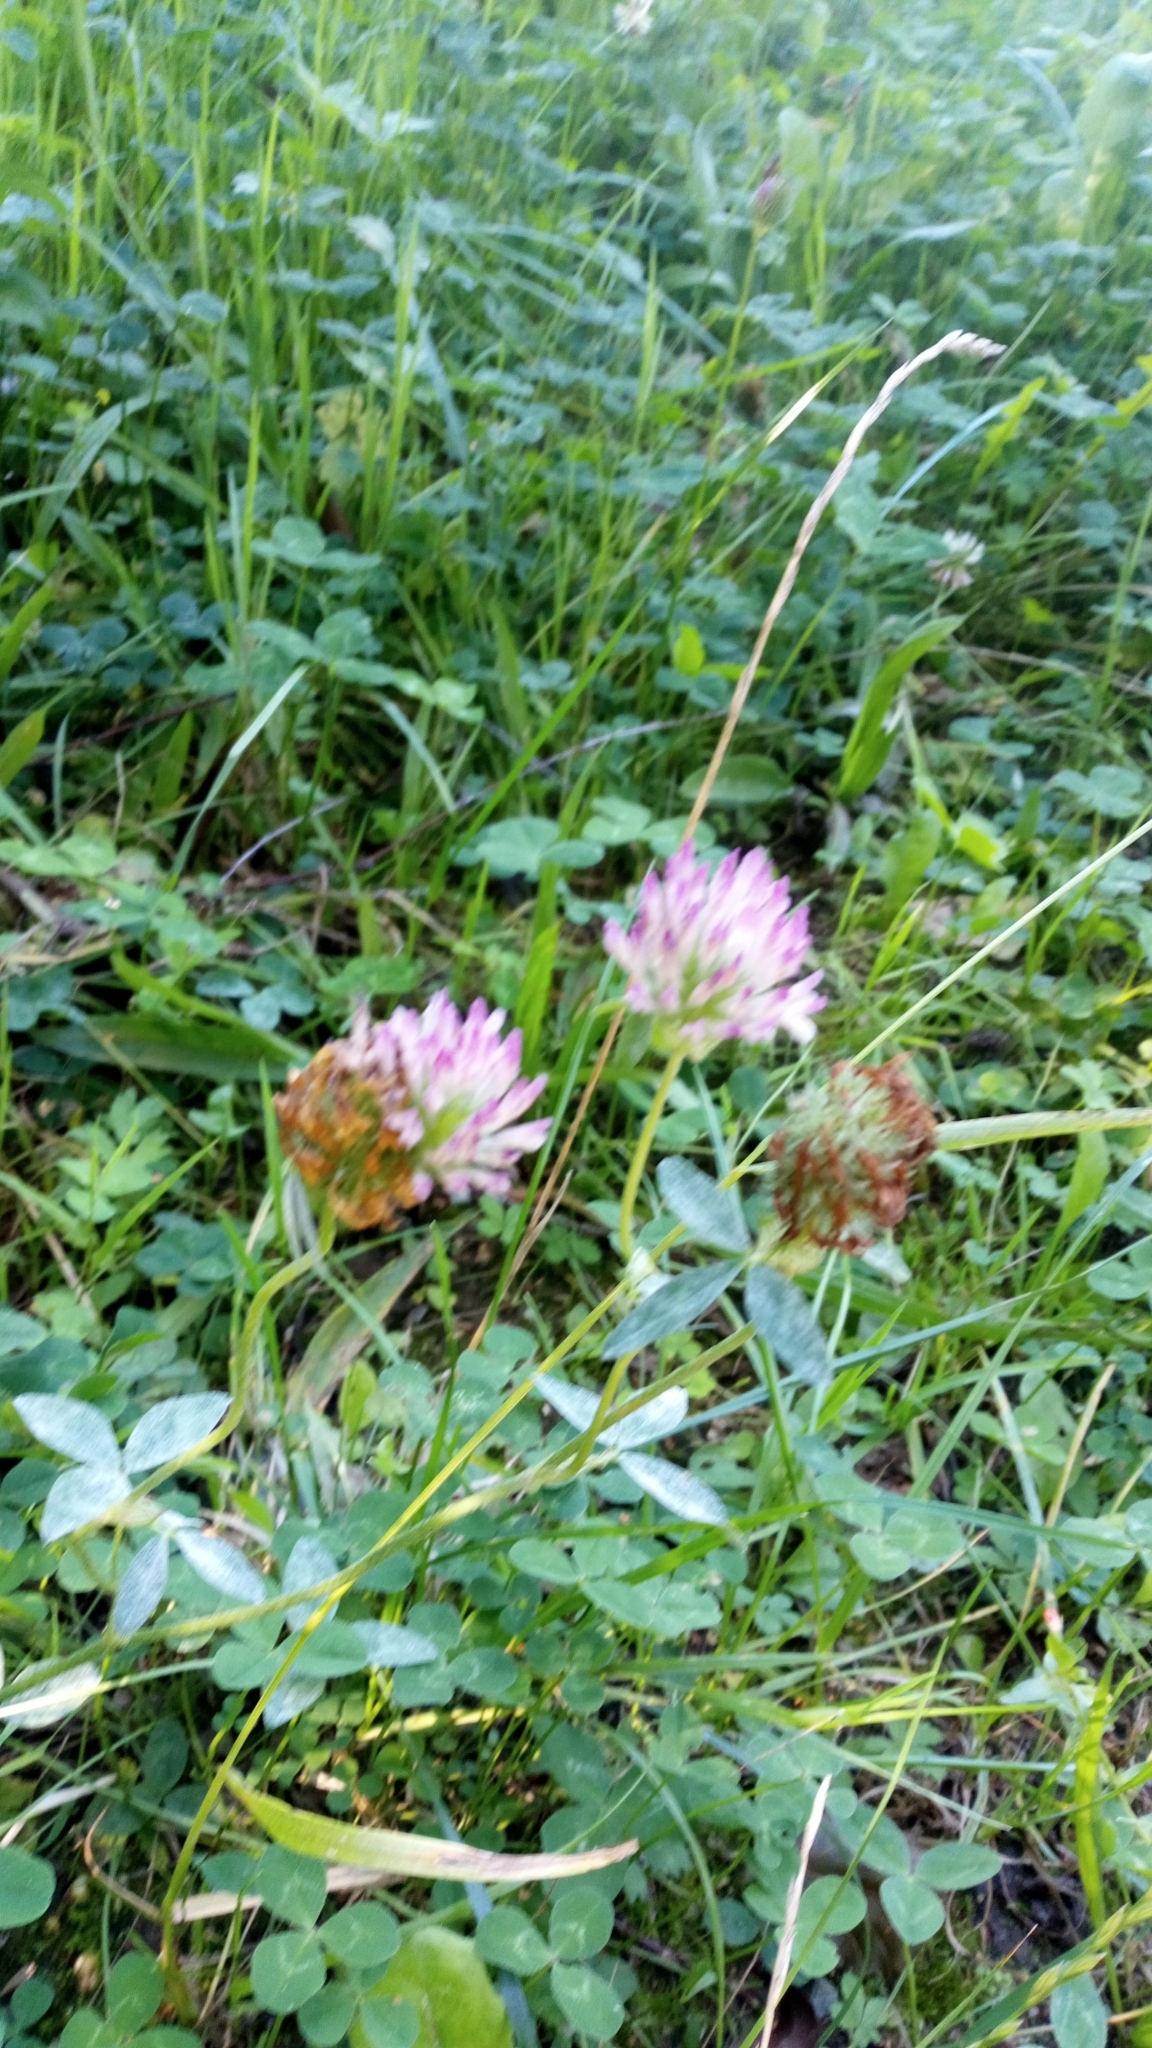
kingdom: Plantae
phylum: Tracheophyta
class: Magnoliopsida
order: Fabales
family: Fabaceae
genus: Trifolium
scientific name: Trifolium pratense
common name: Red clover
